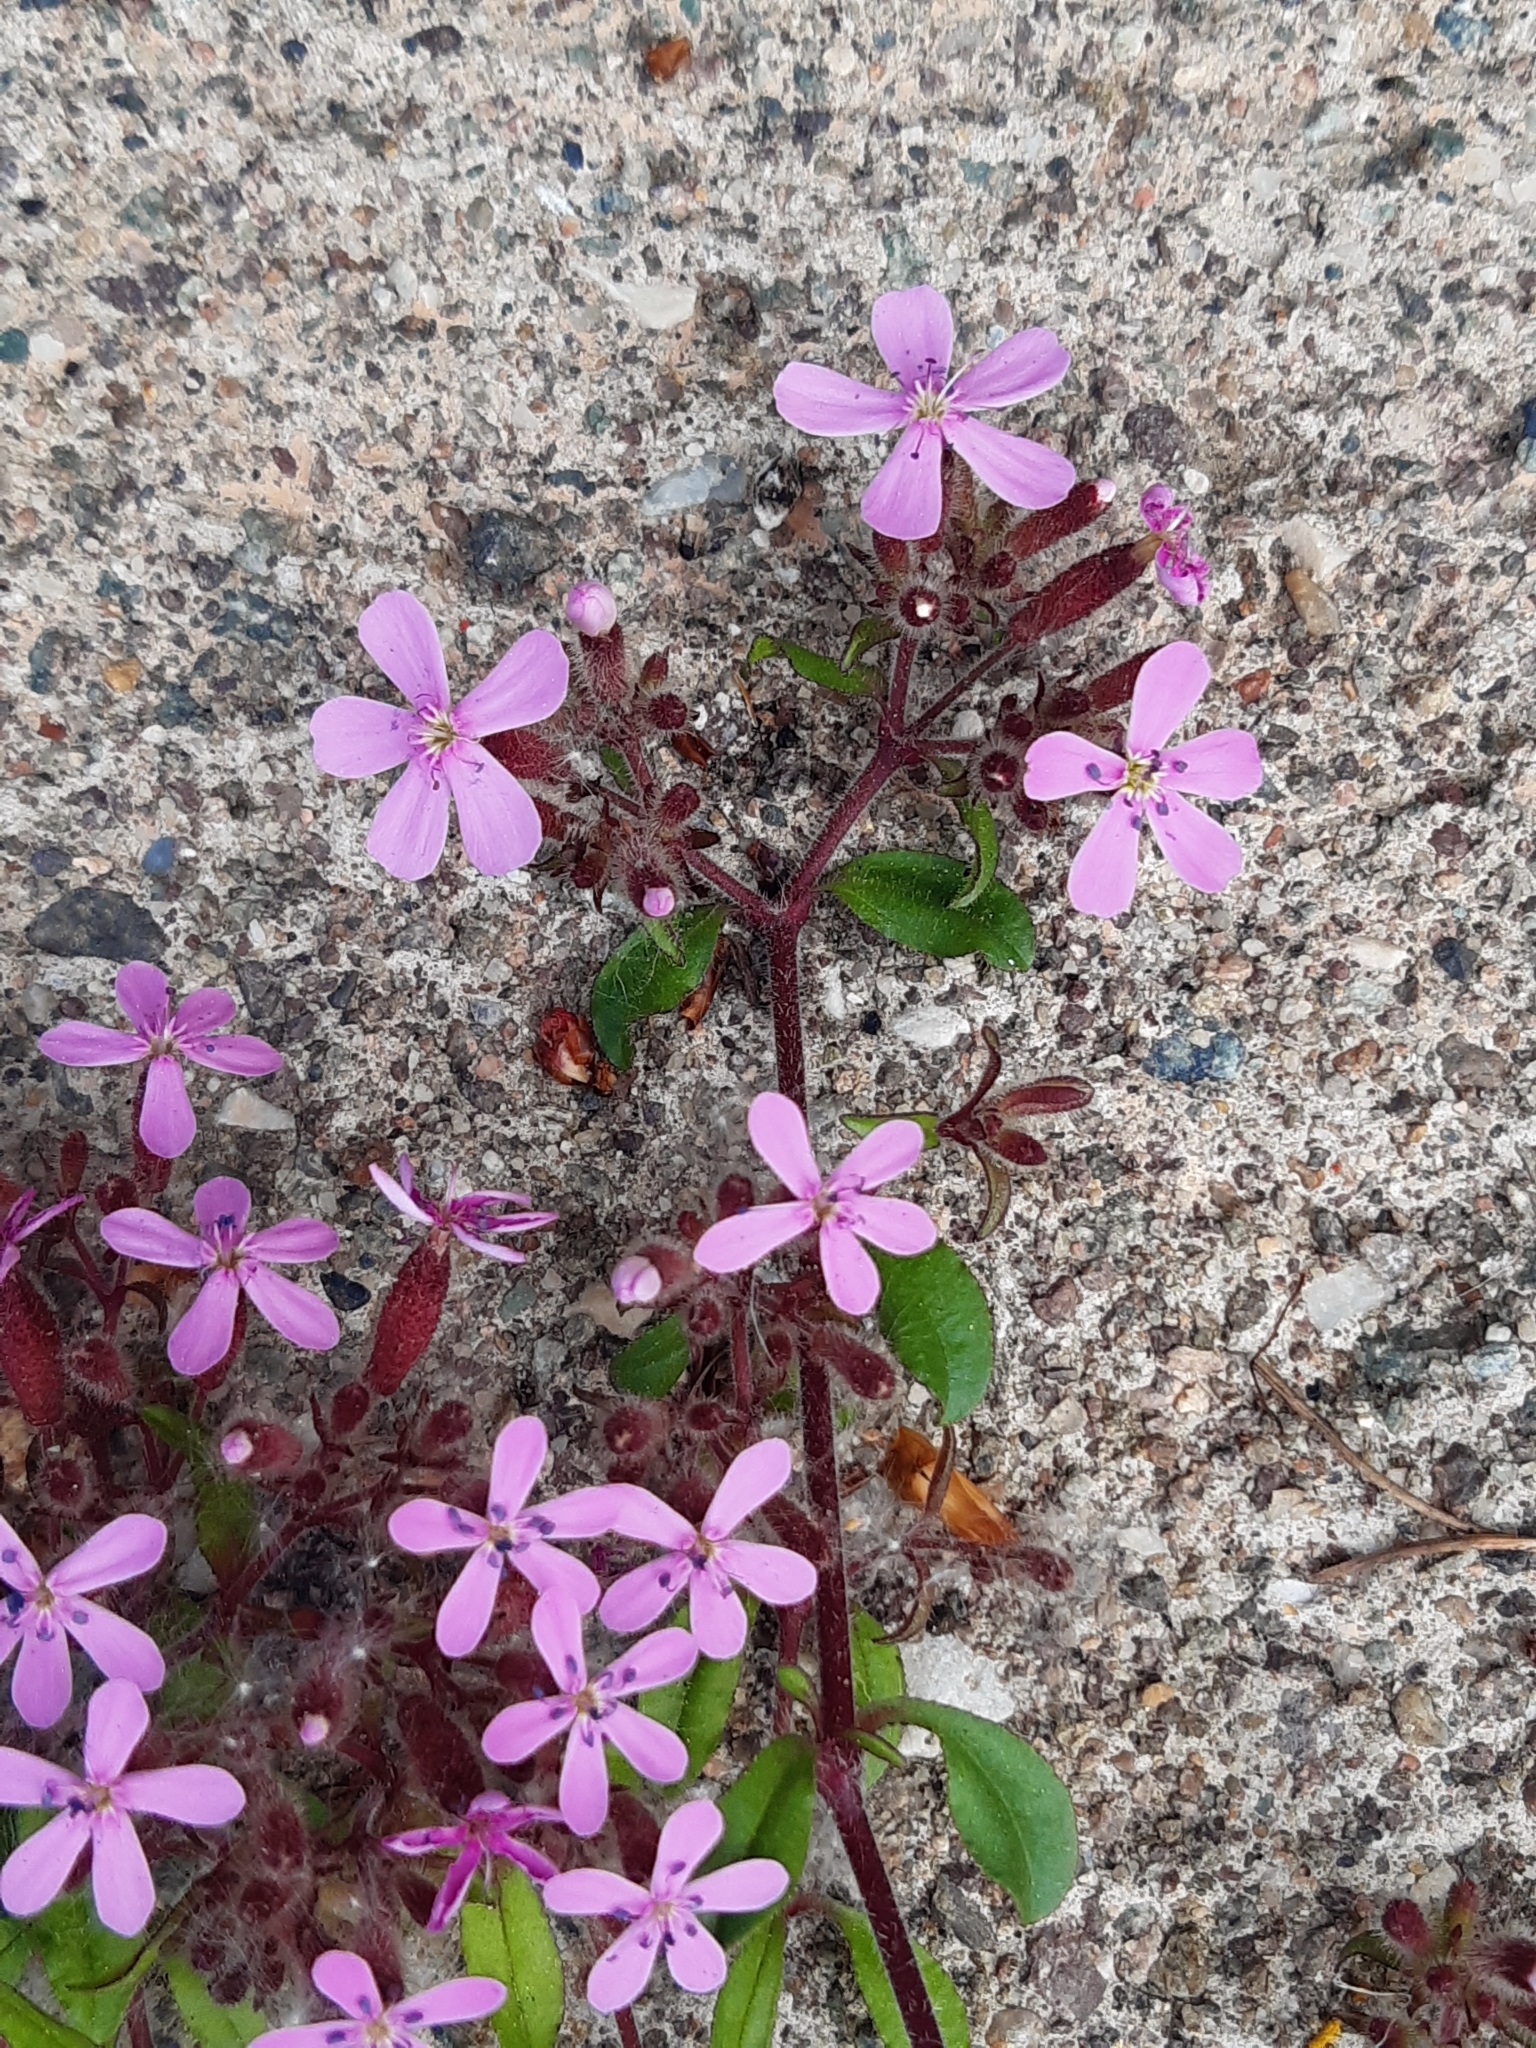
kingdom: Plantae
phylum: Tracheophyta
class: Magnoliopsida
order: Caryophyllales
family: Caryophyllaceae
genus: Saponaria
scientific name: Saponaria ocymoides
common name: Rock soapwort
